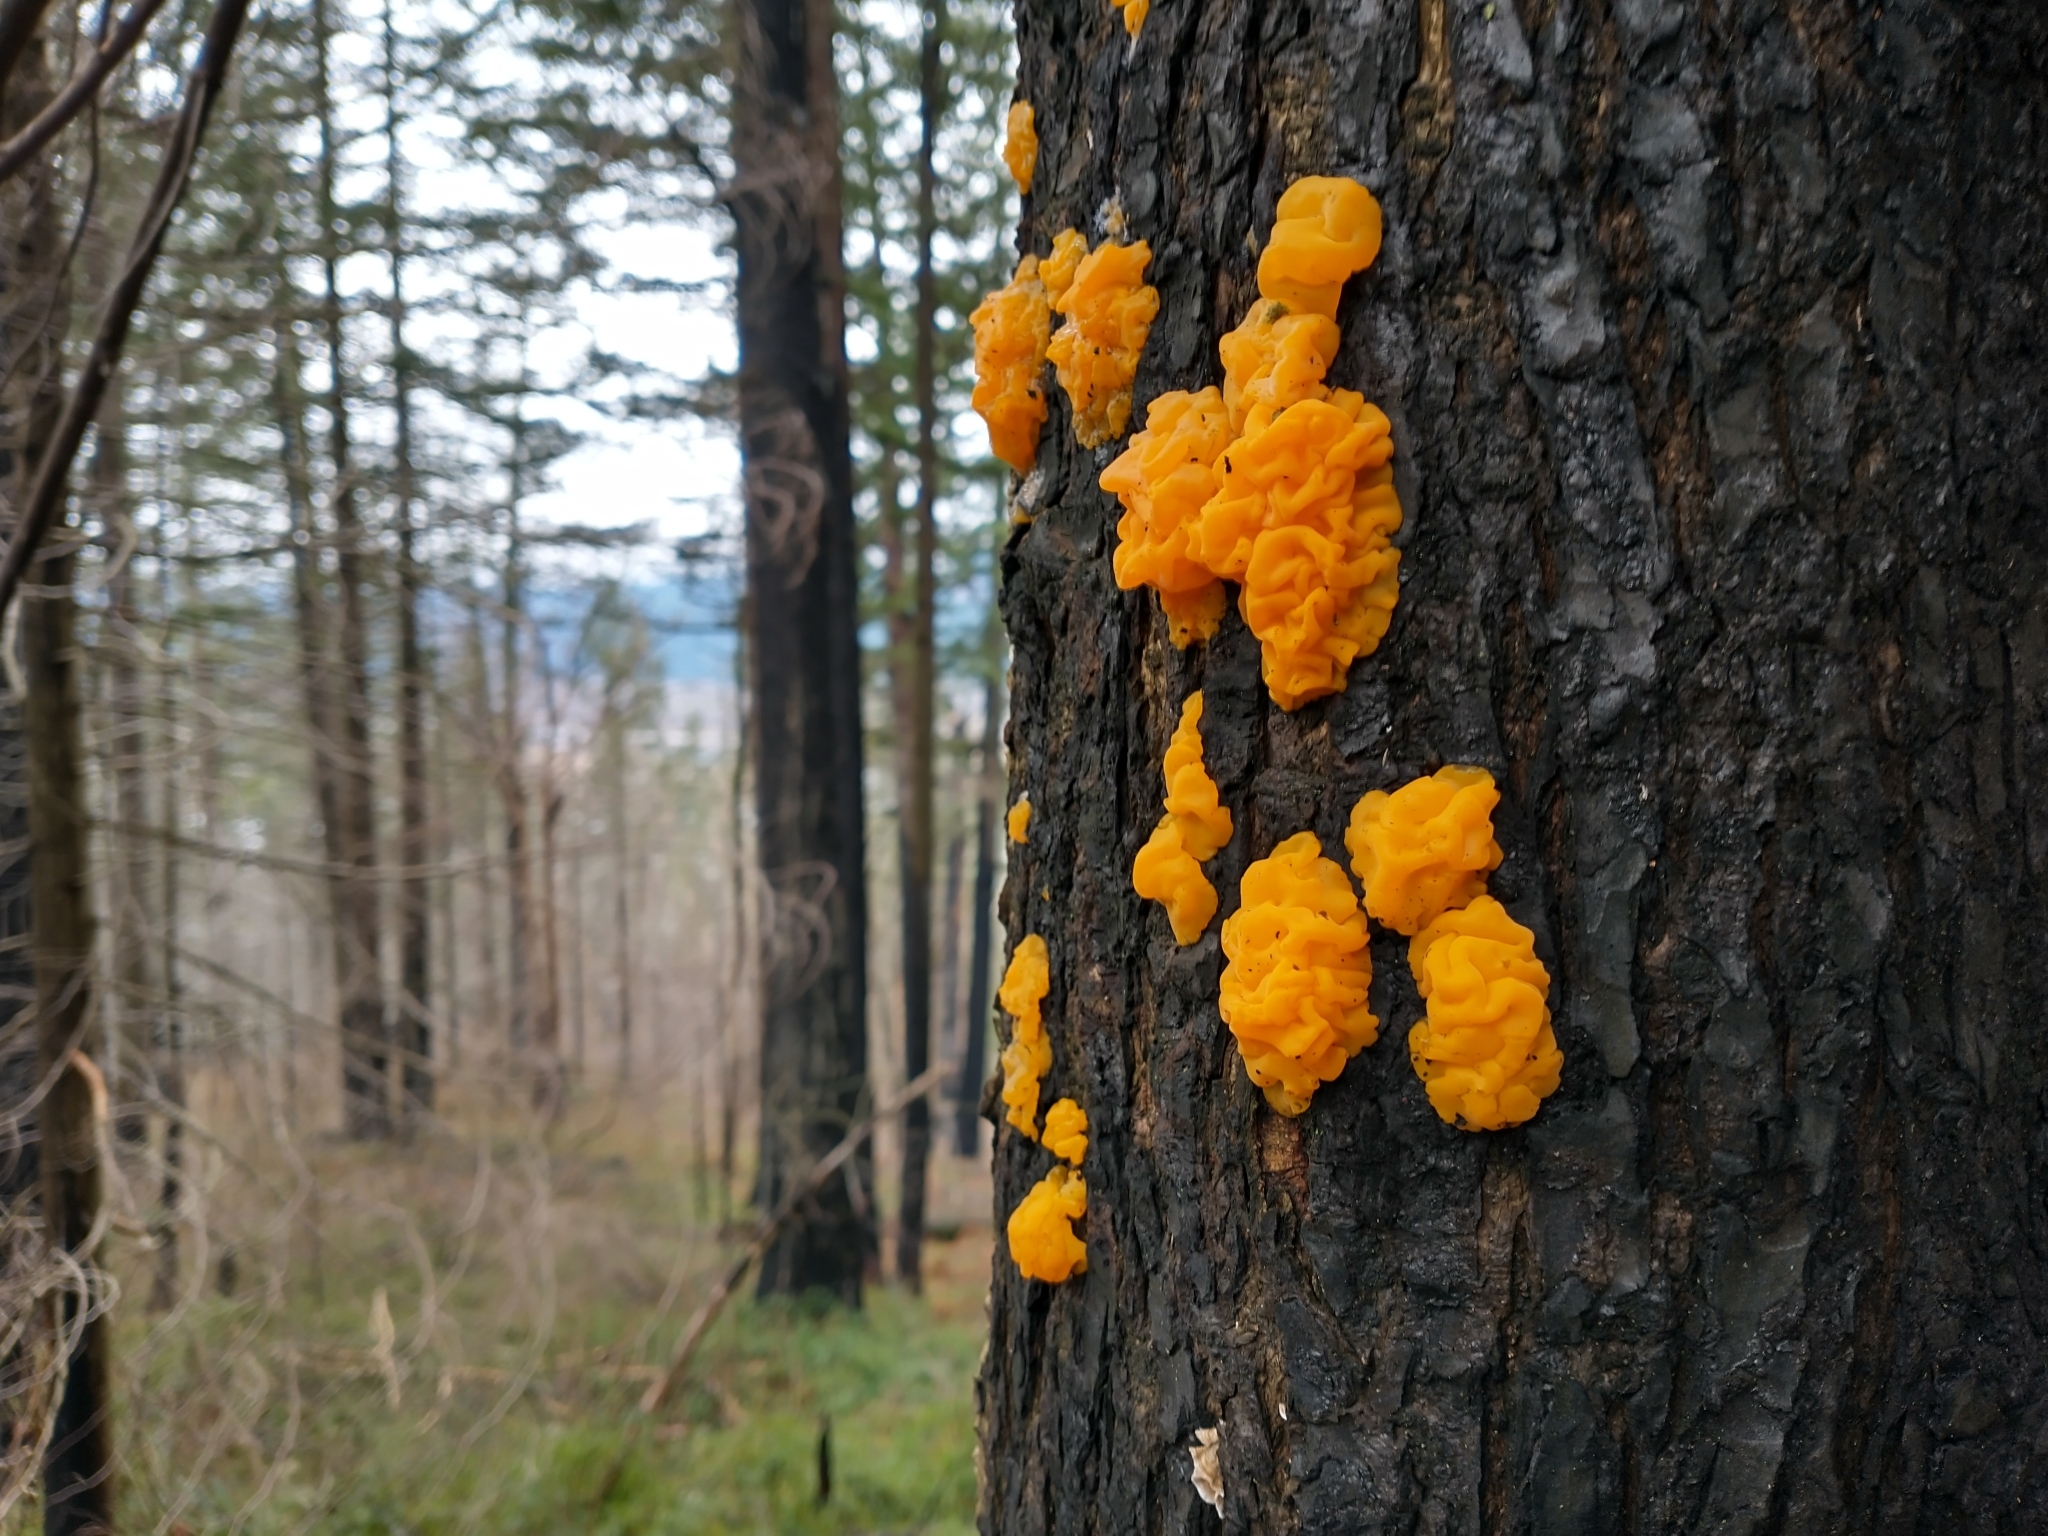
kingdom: Fungi
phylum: Basidiomycota
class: Dacrymycetes
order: Dacrymycetales
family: Dacrymycetaceae
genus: Dacrymyces
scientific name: Dacrymyces chrysospermus
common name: Orange jelly spot
